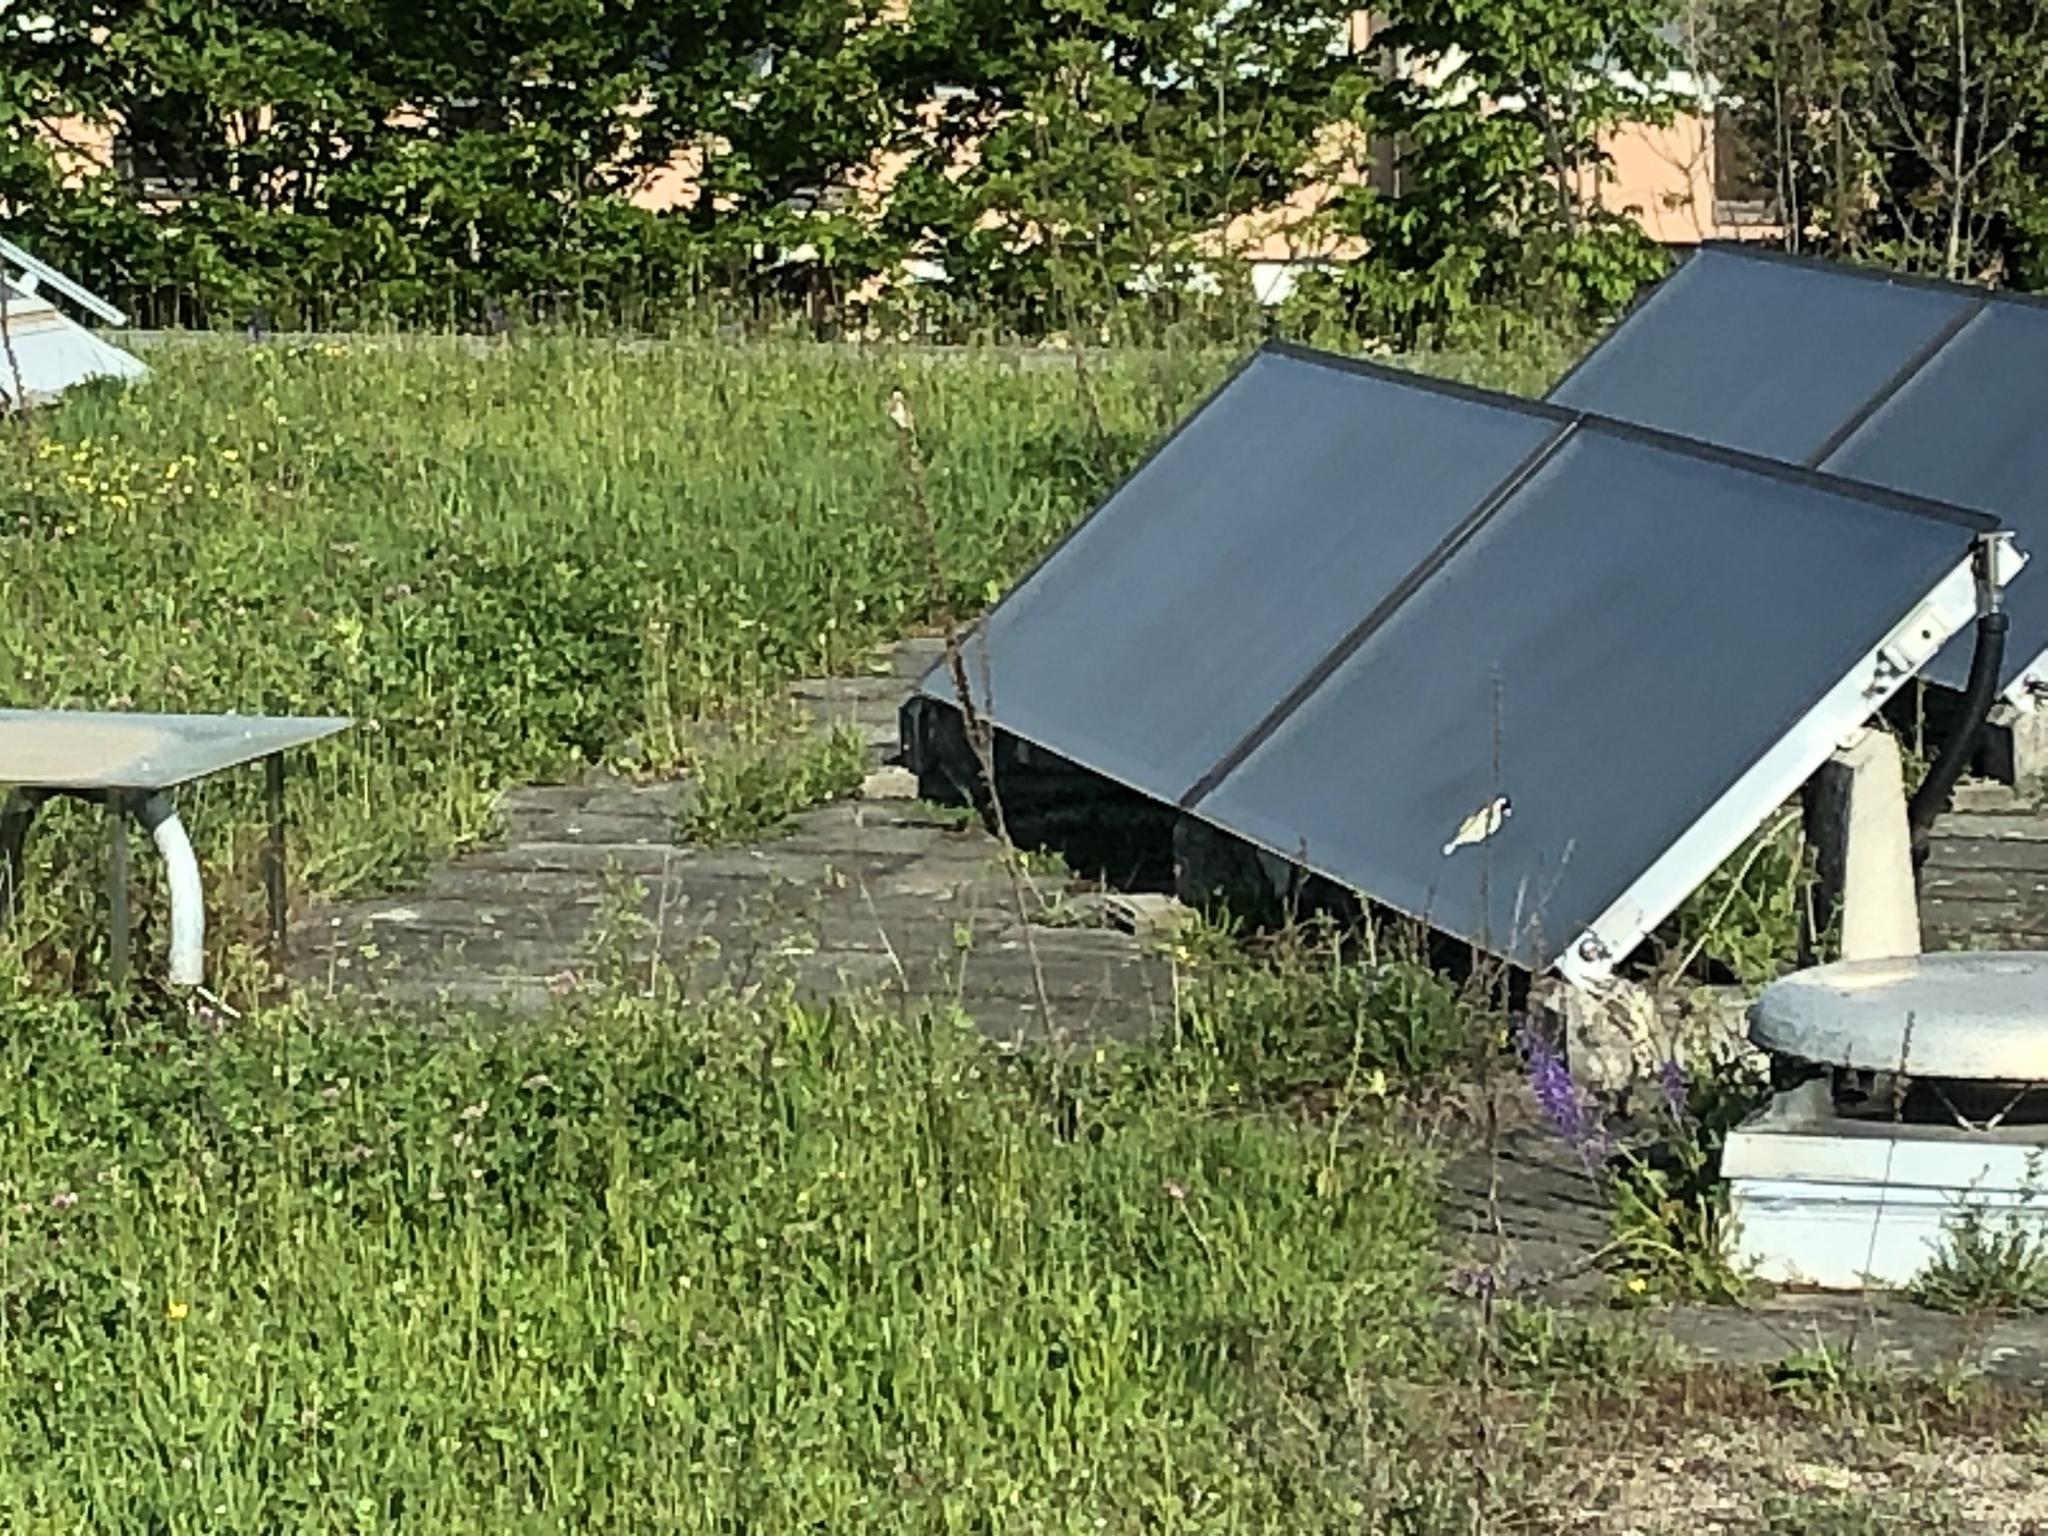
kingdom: Animalia
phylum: Chordata
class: Aves
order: Passeriformes
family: Fringillidae
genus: Carduelis
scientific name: Carduelis carduelis
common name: European goldfinch
